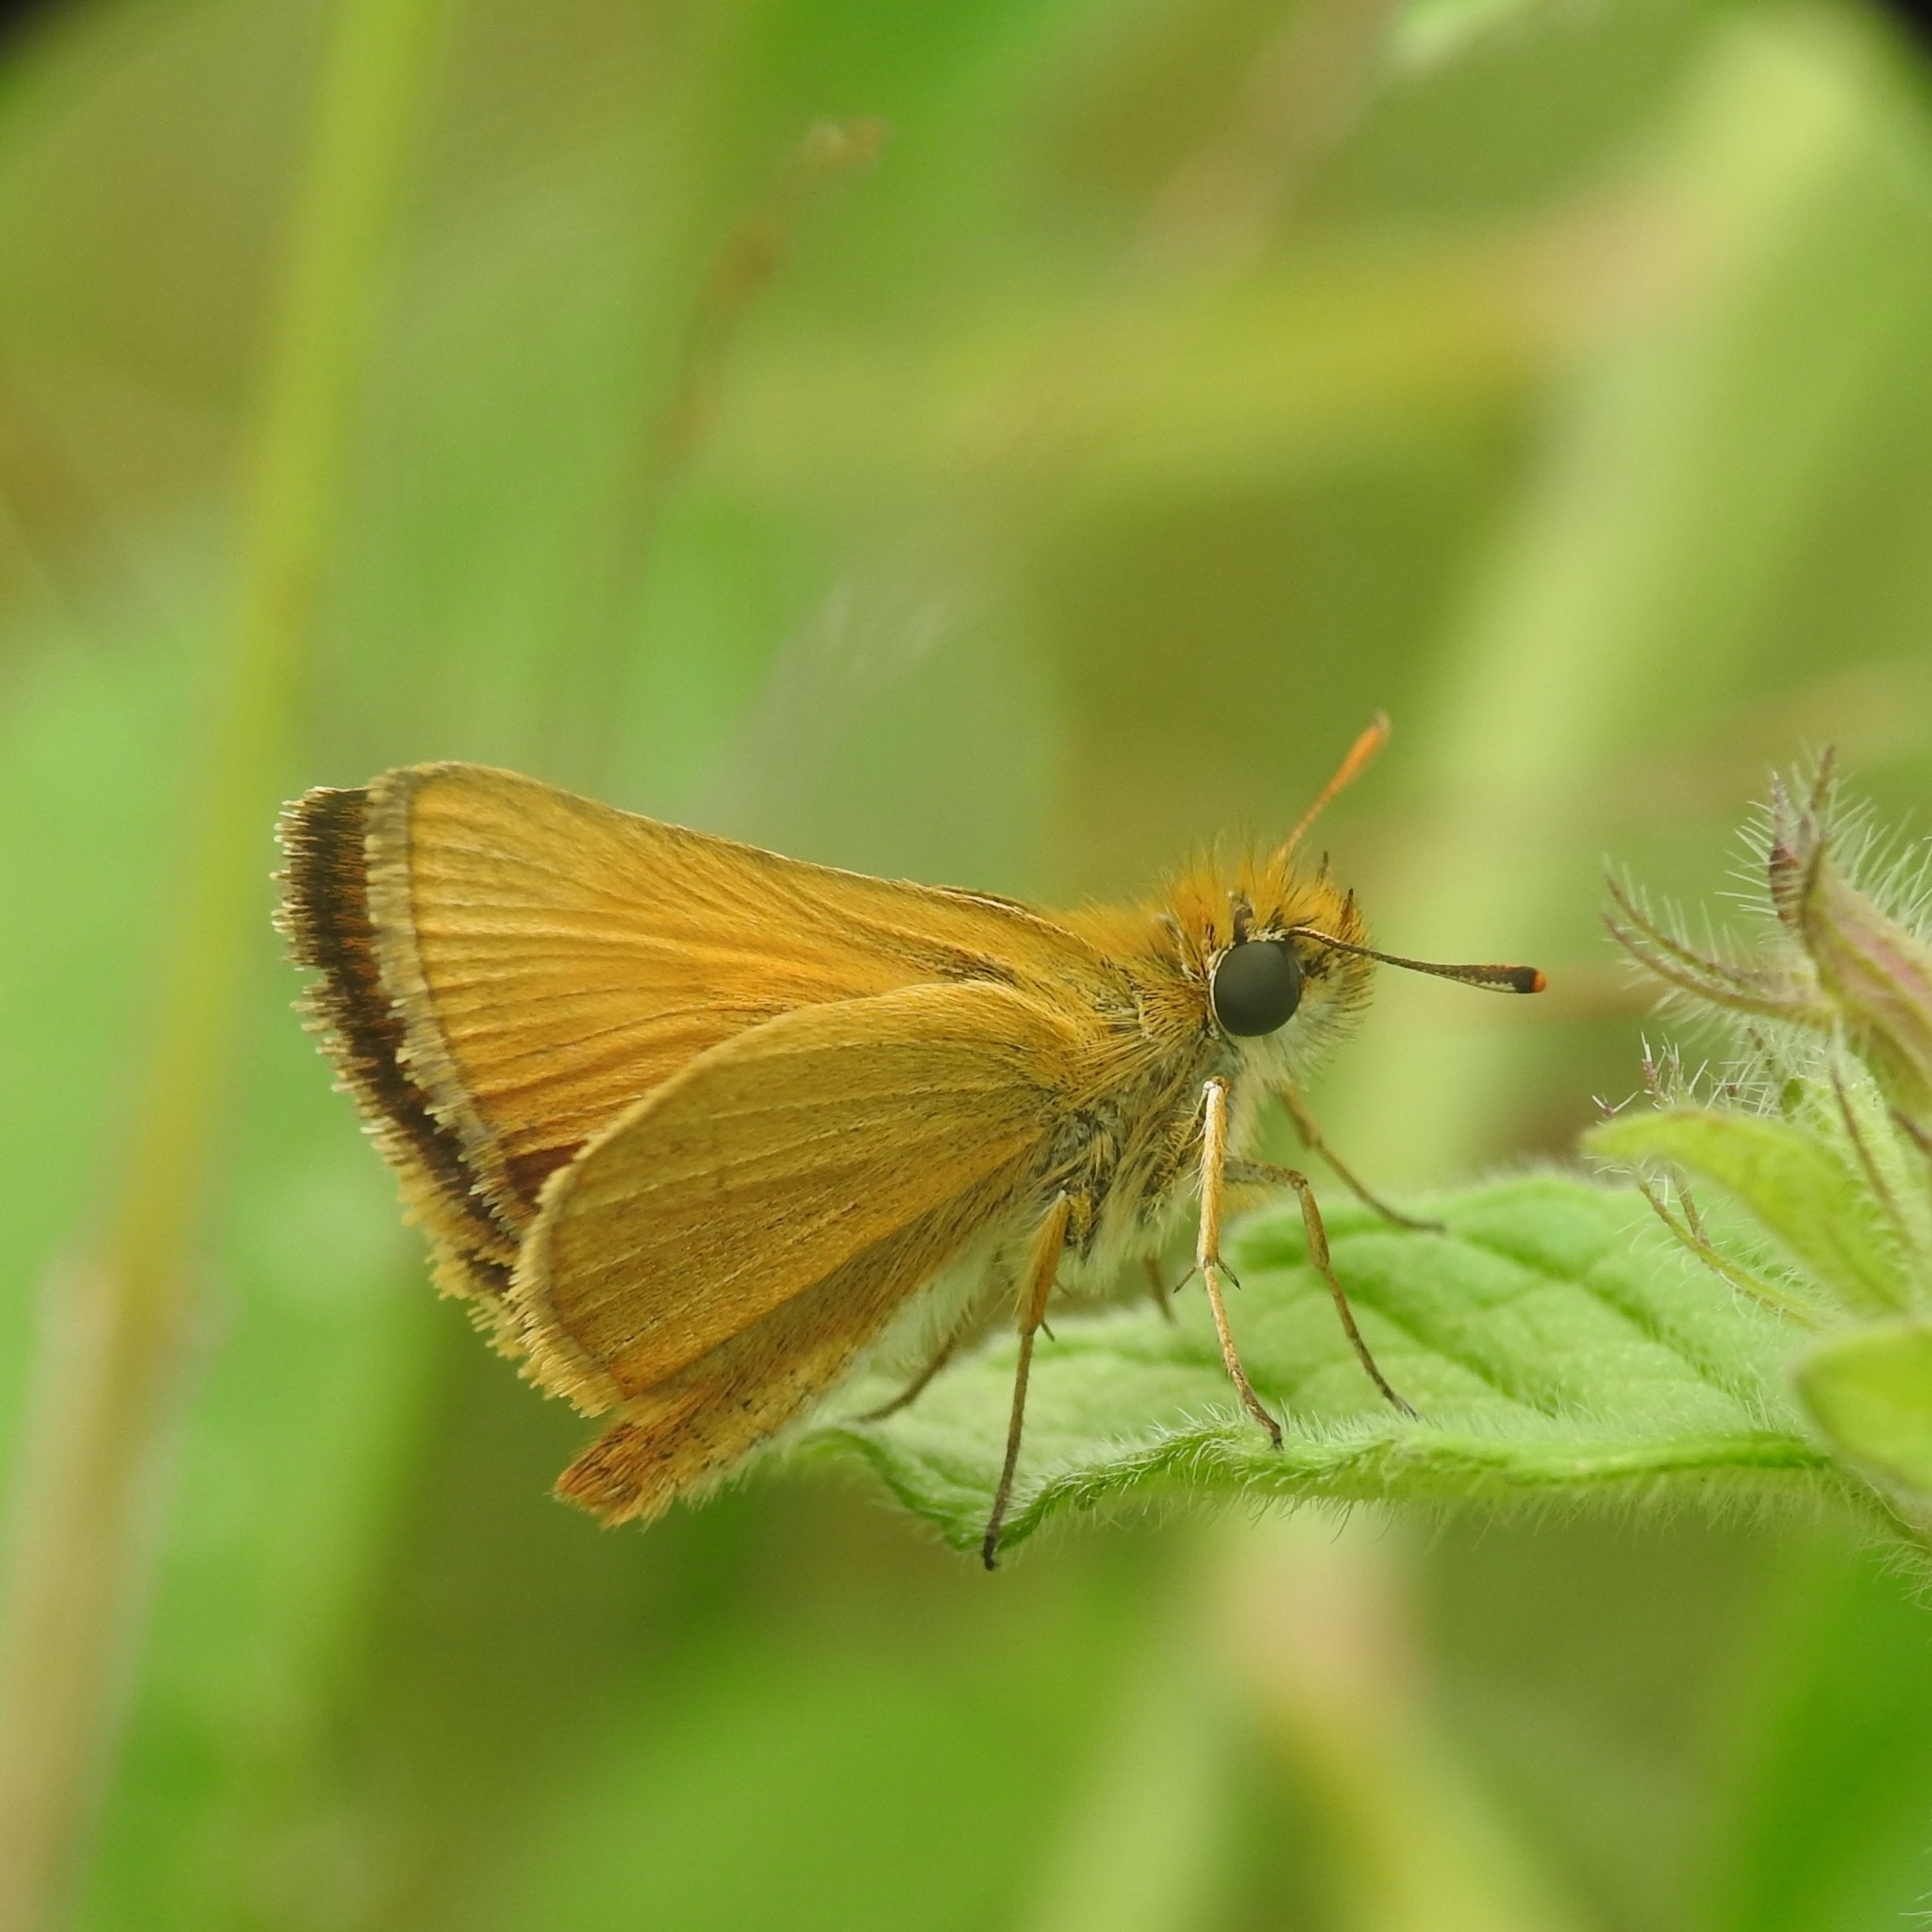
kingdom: Animalia
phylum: Arthropoda
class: Insecta
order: Lepidoptera
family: Hesperiidae
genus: Thymelicus
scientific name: Thymelicus acteon
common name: Lulworth skipper
